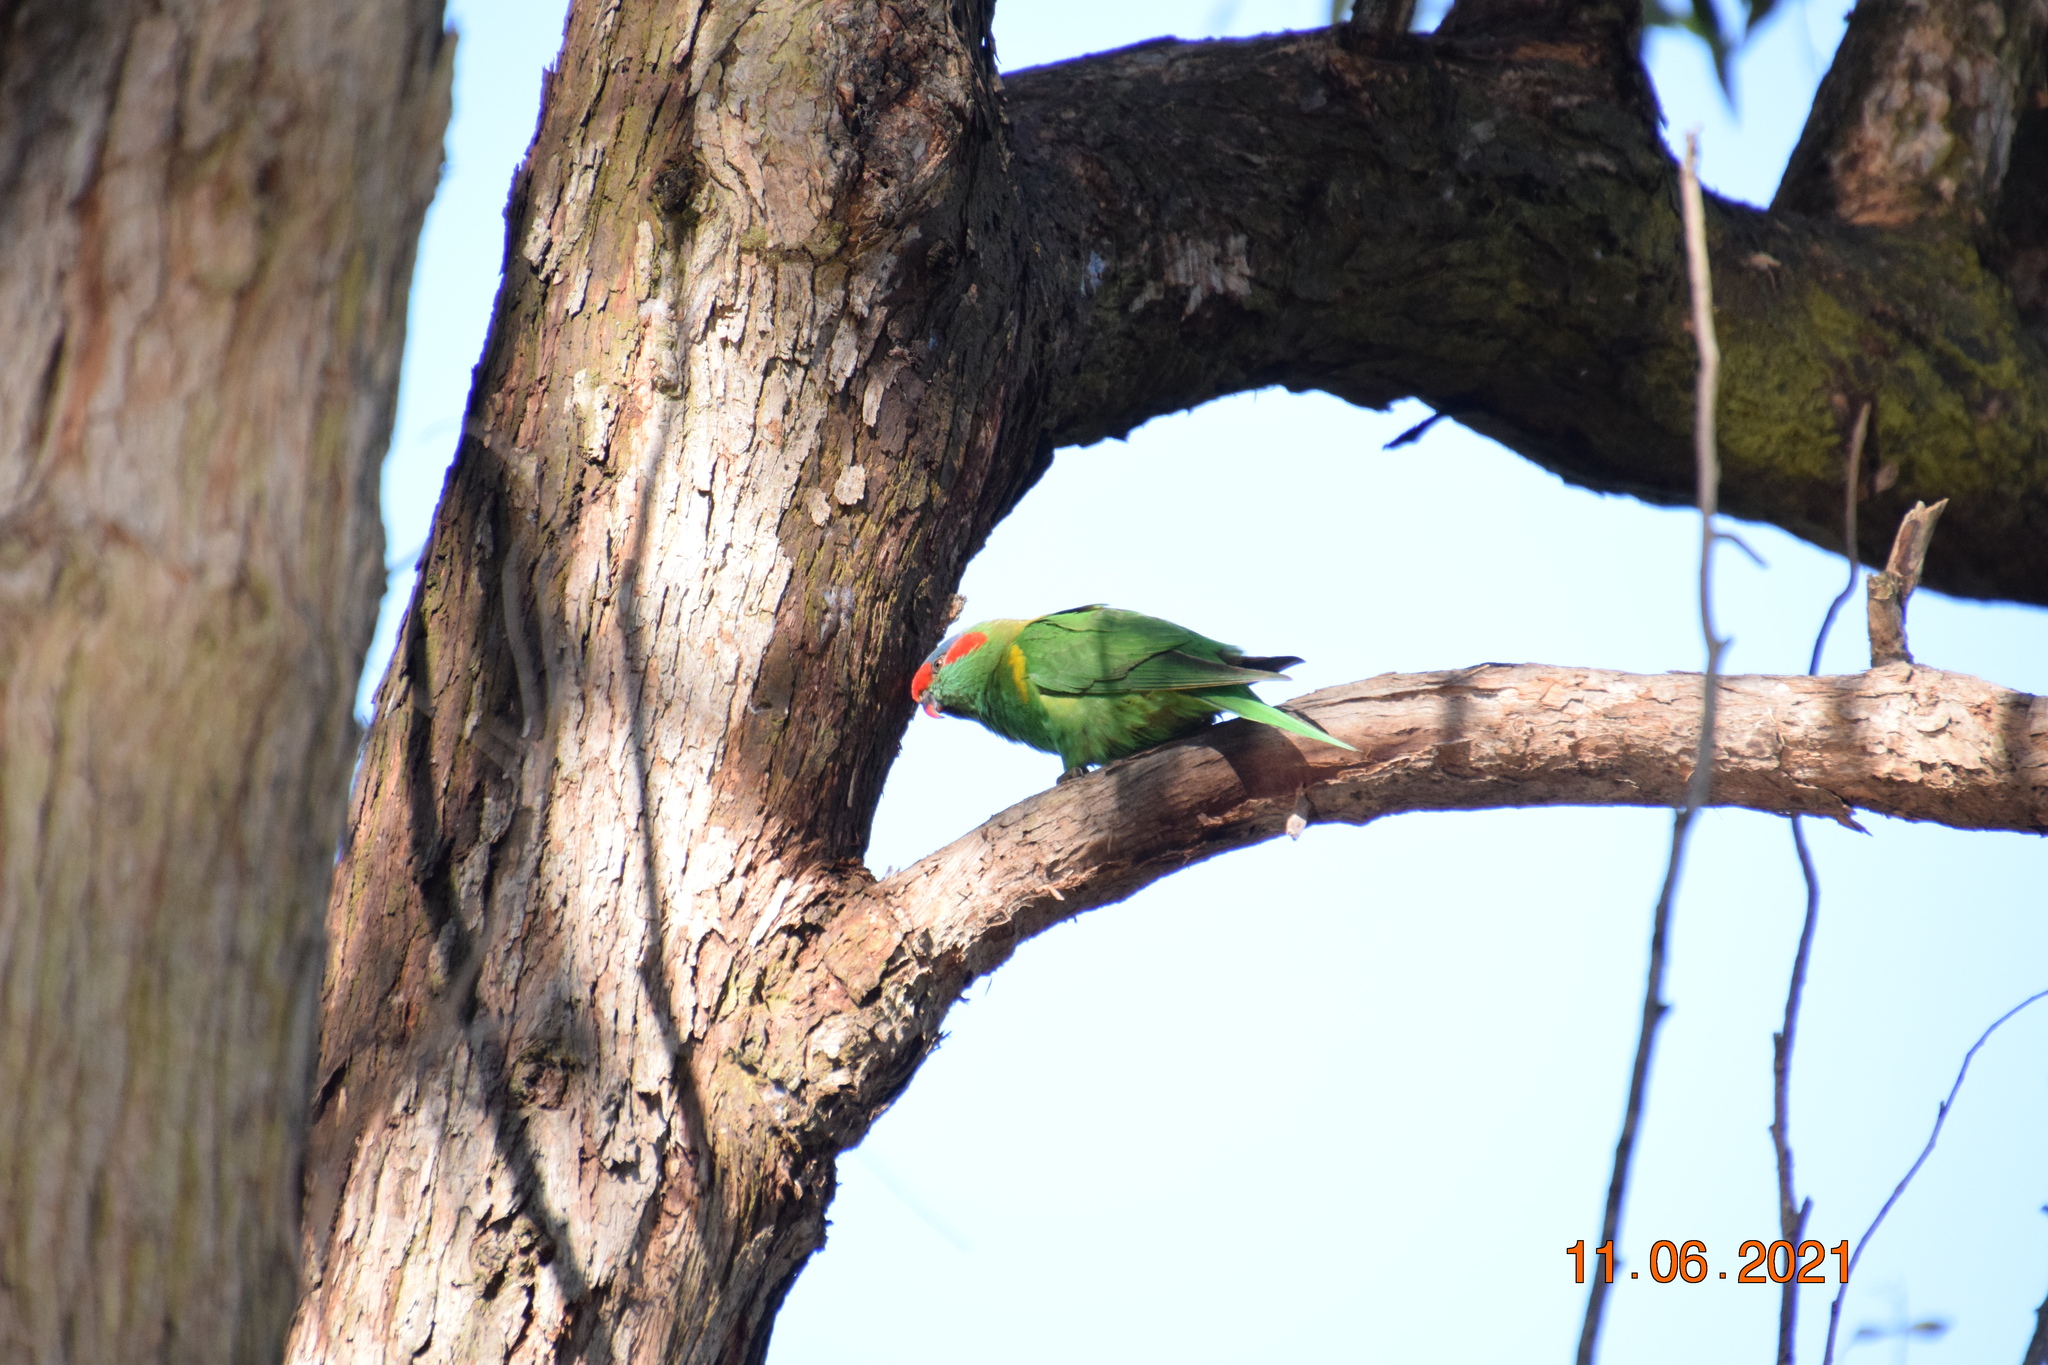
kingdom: Animalia
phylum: Chordata
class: Aves
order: Psittaciformes
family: Psittacidae
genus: Glossopsitta
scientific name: Glossopsitta concinna
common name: Musk lorikeet
